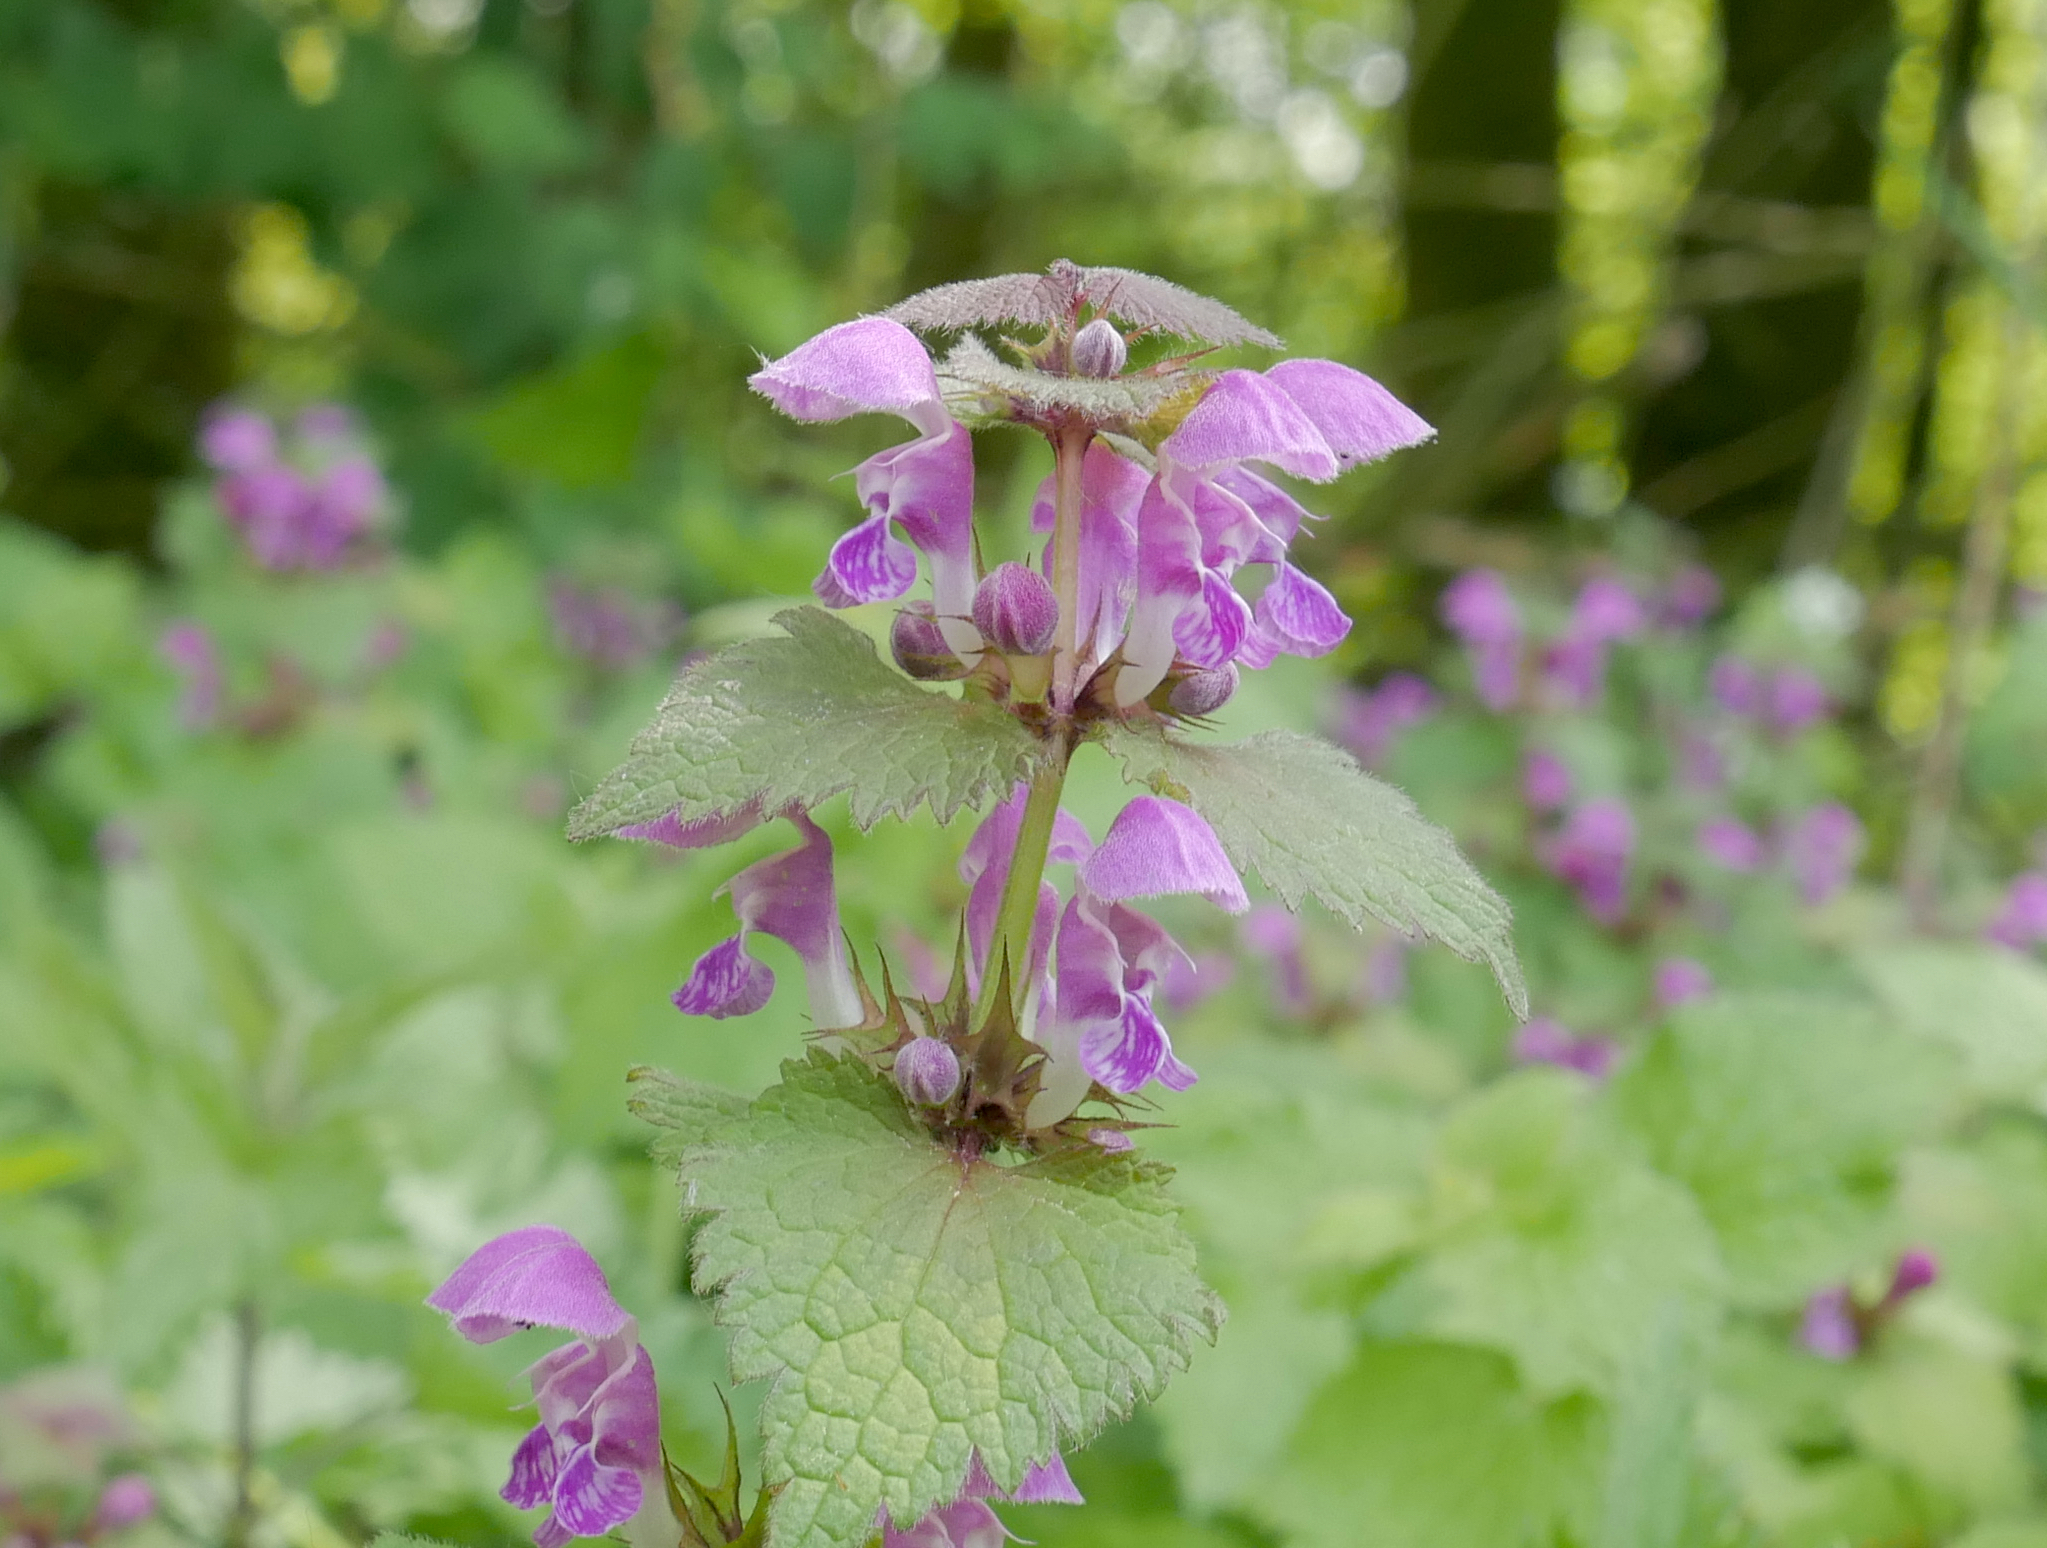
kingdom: Plantae
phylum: Tracheophyta
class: Magnoliopsida
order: Lamiales
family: Lamiaceae
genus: Lamium
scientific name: Lamium maculatum
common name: Spotted dead-nettle
